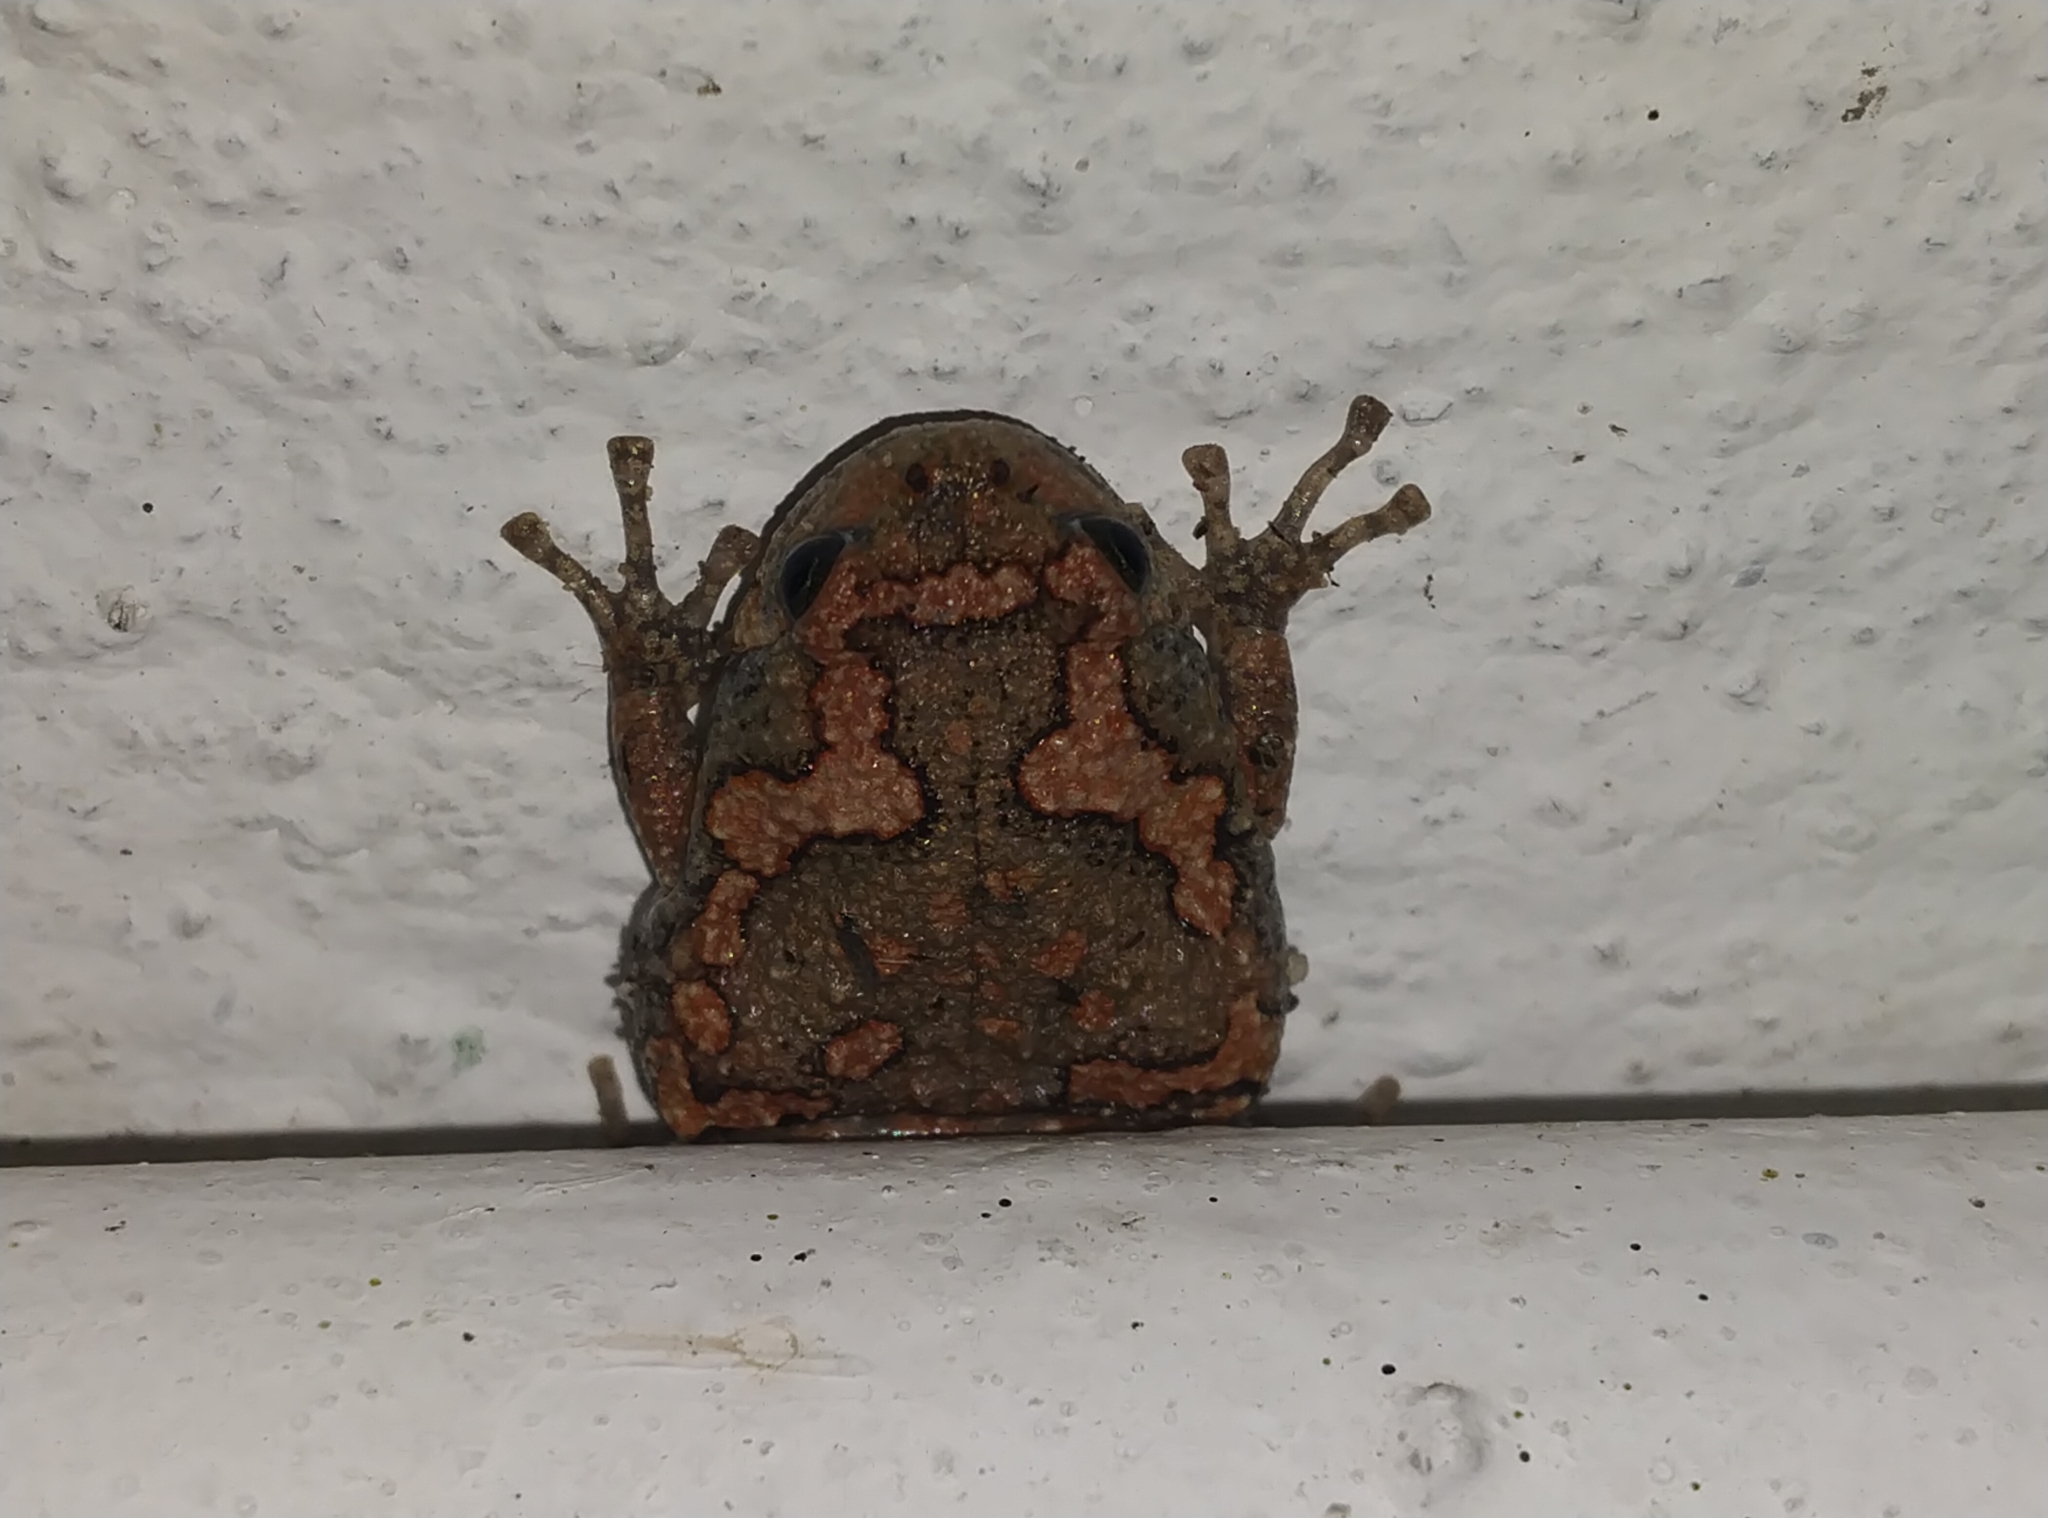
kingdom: Animalia
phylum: Chordata
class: Amphibia
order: Anura
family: Microhylidae
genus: Uperodon
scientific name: Uperodon taprobanicus
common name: Ceylon kaloula
